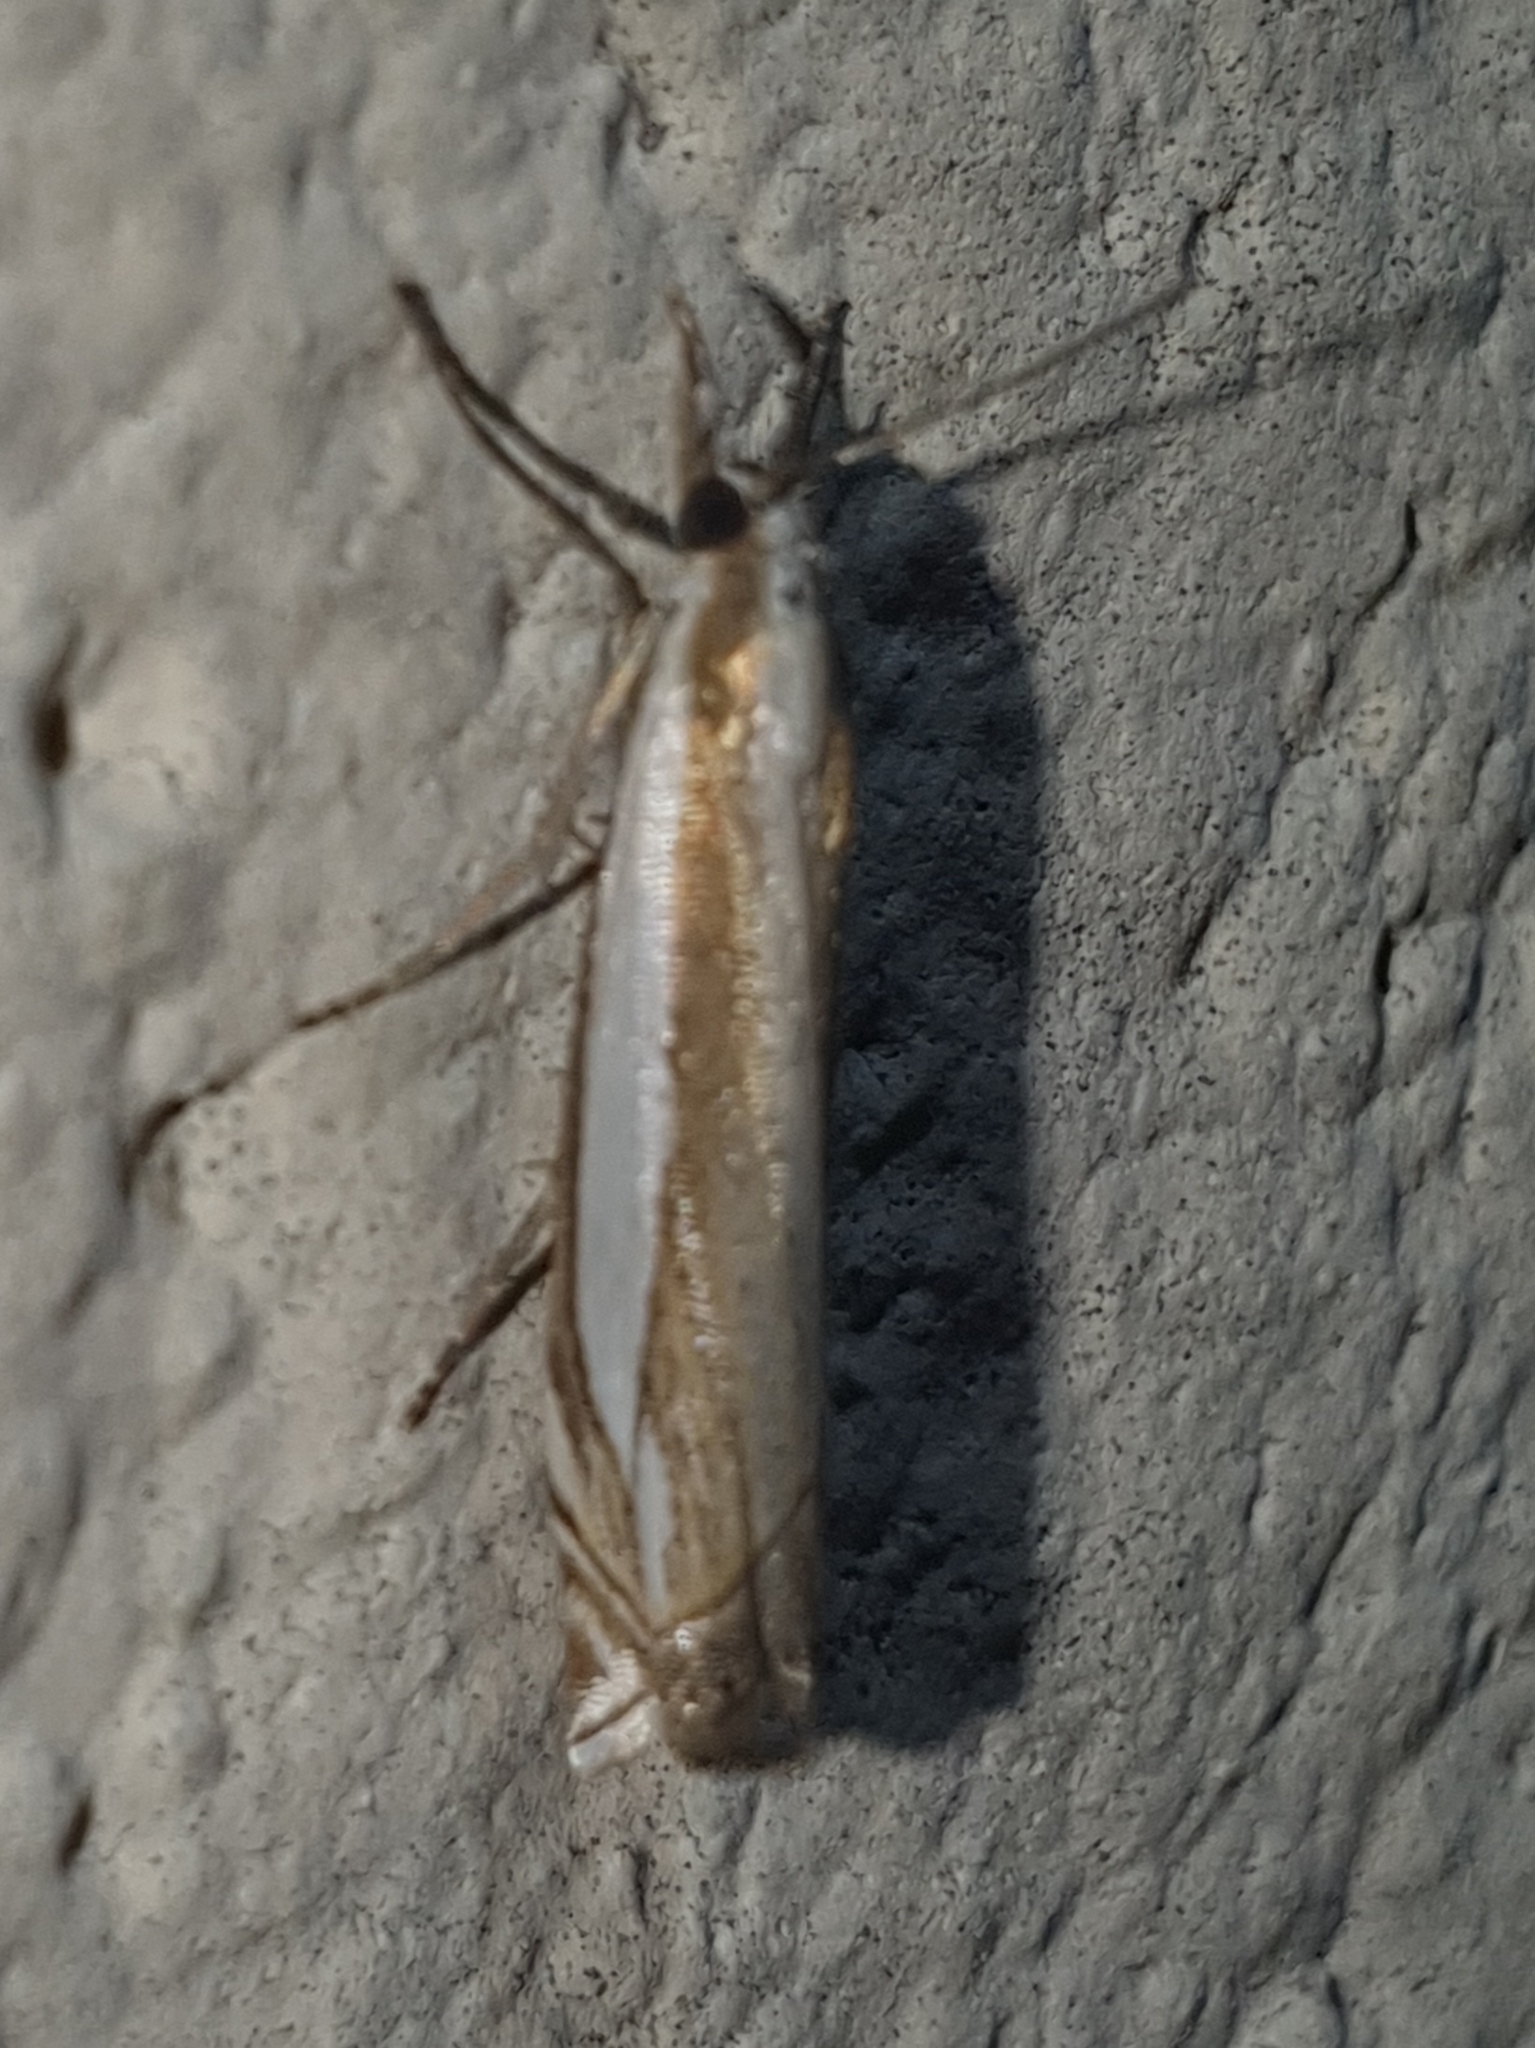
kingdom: Animalia
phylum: Arthropoda
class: Insecta
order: Lepidoptera
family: Crambidae
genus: Crambus
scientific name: Crambus pascuella
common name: Inlaid grass-veneer
